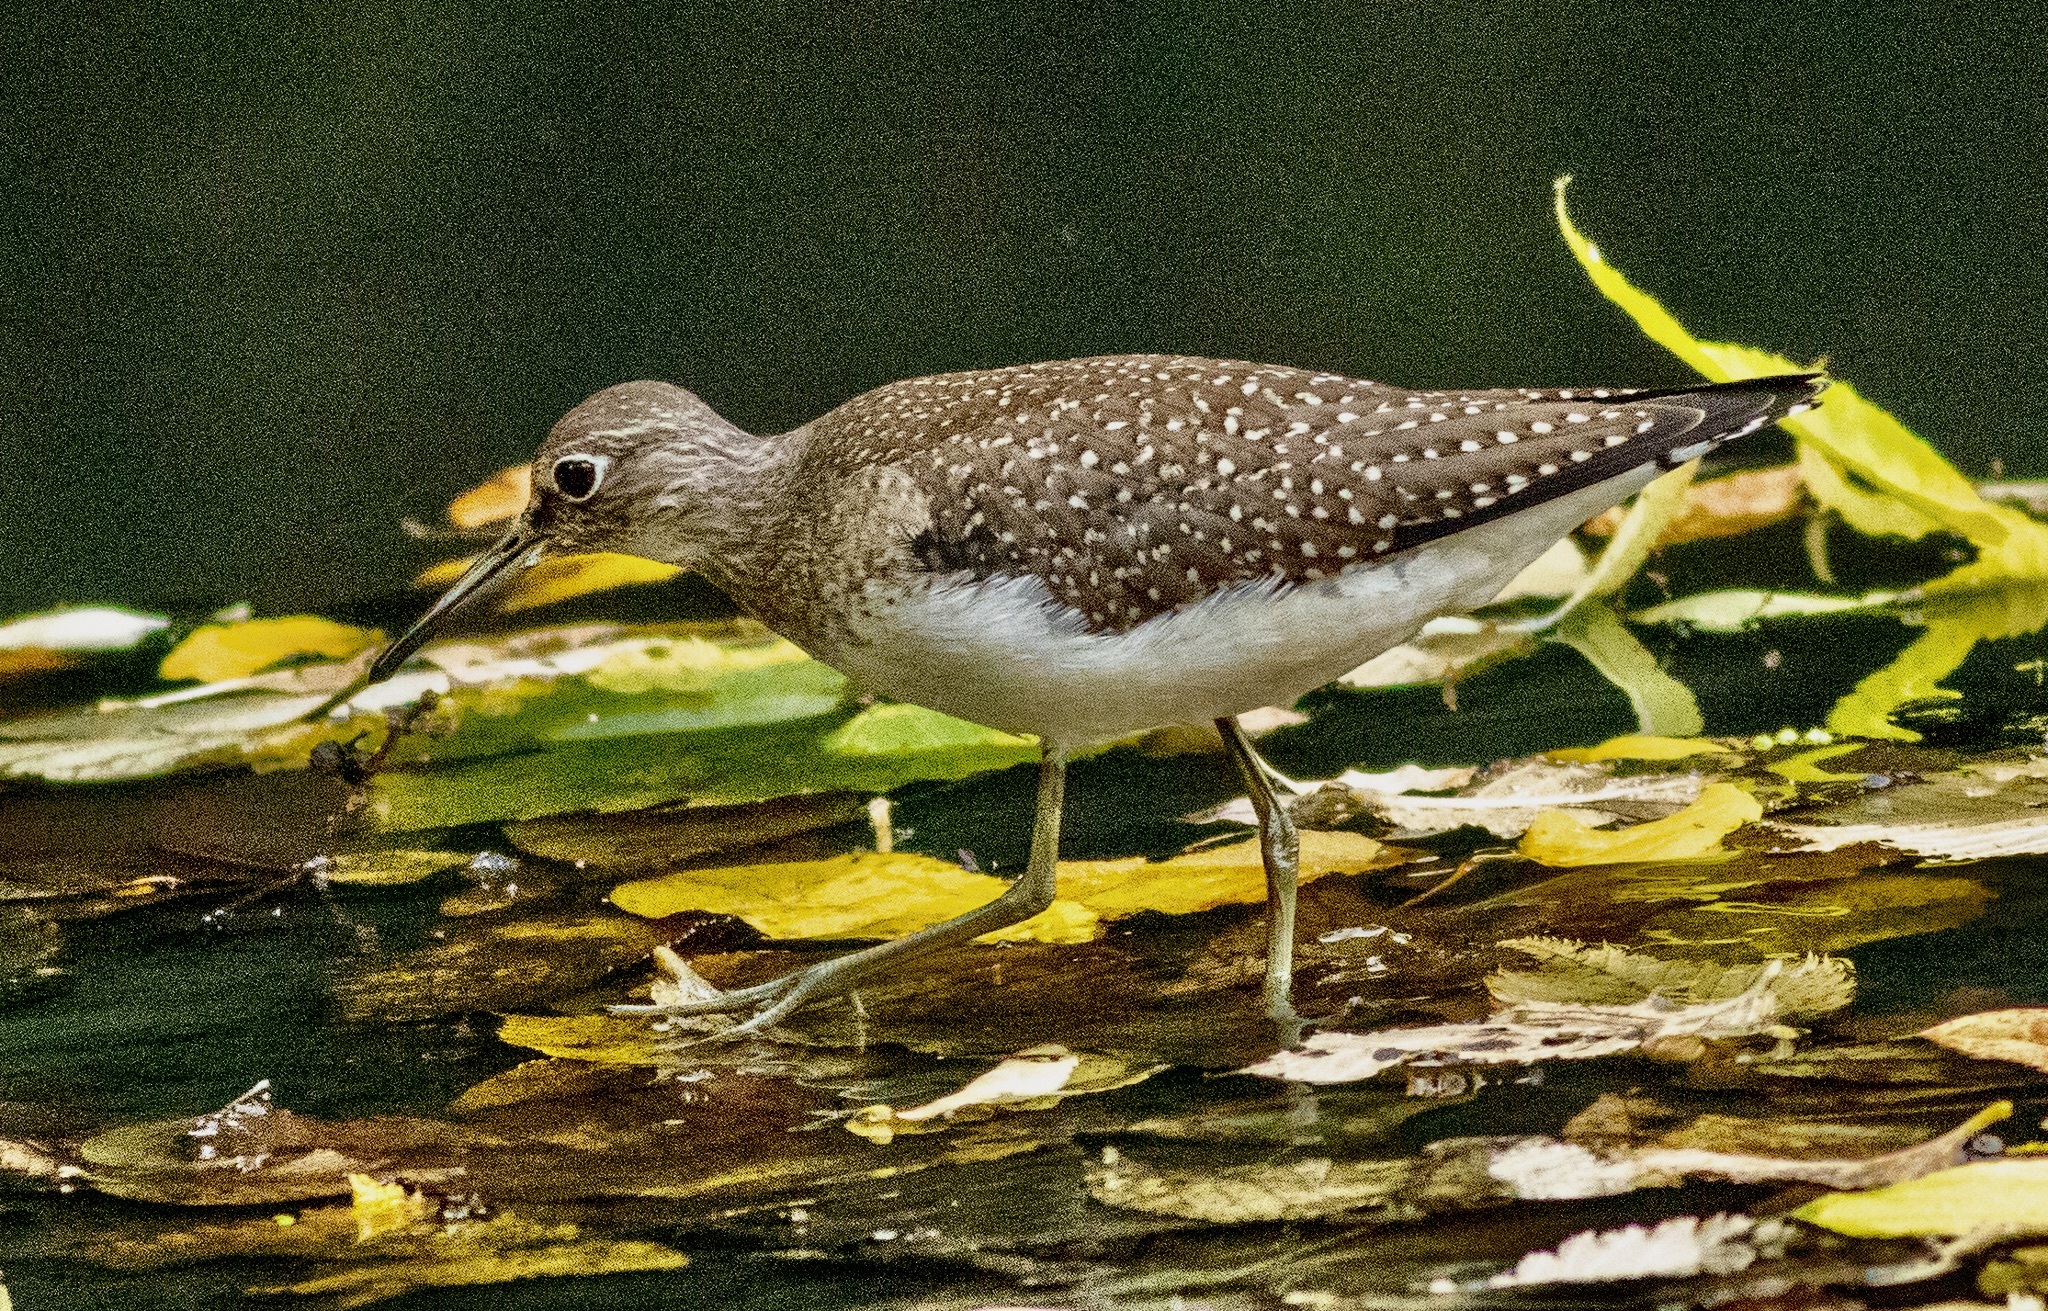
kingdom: Animalia
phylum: Chordata
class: Aves
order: Charadriiformes
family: Scolopacidae
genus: Tringa
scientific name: Tringa solitaria
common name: Solitary sandpiper
